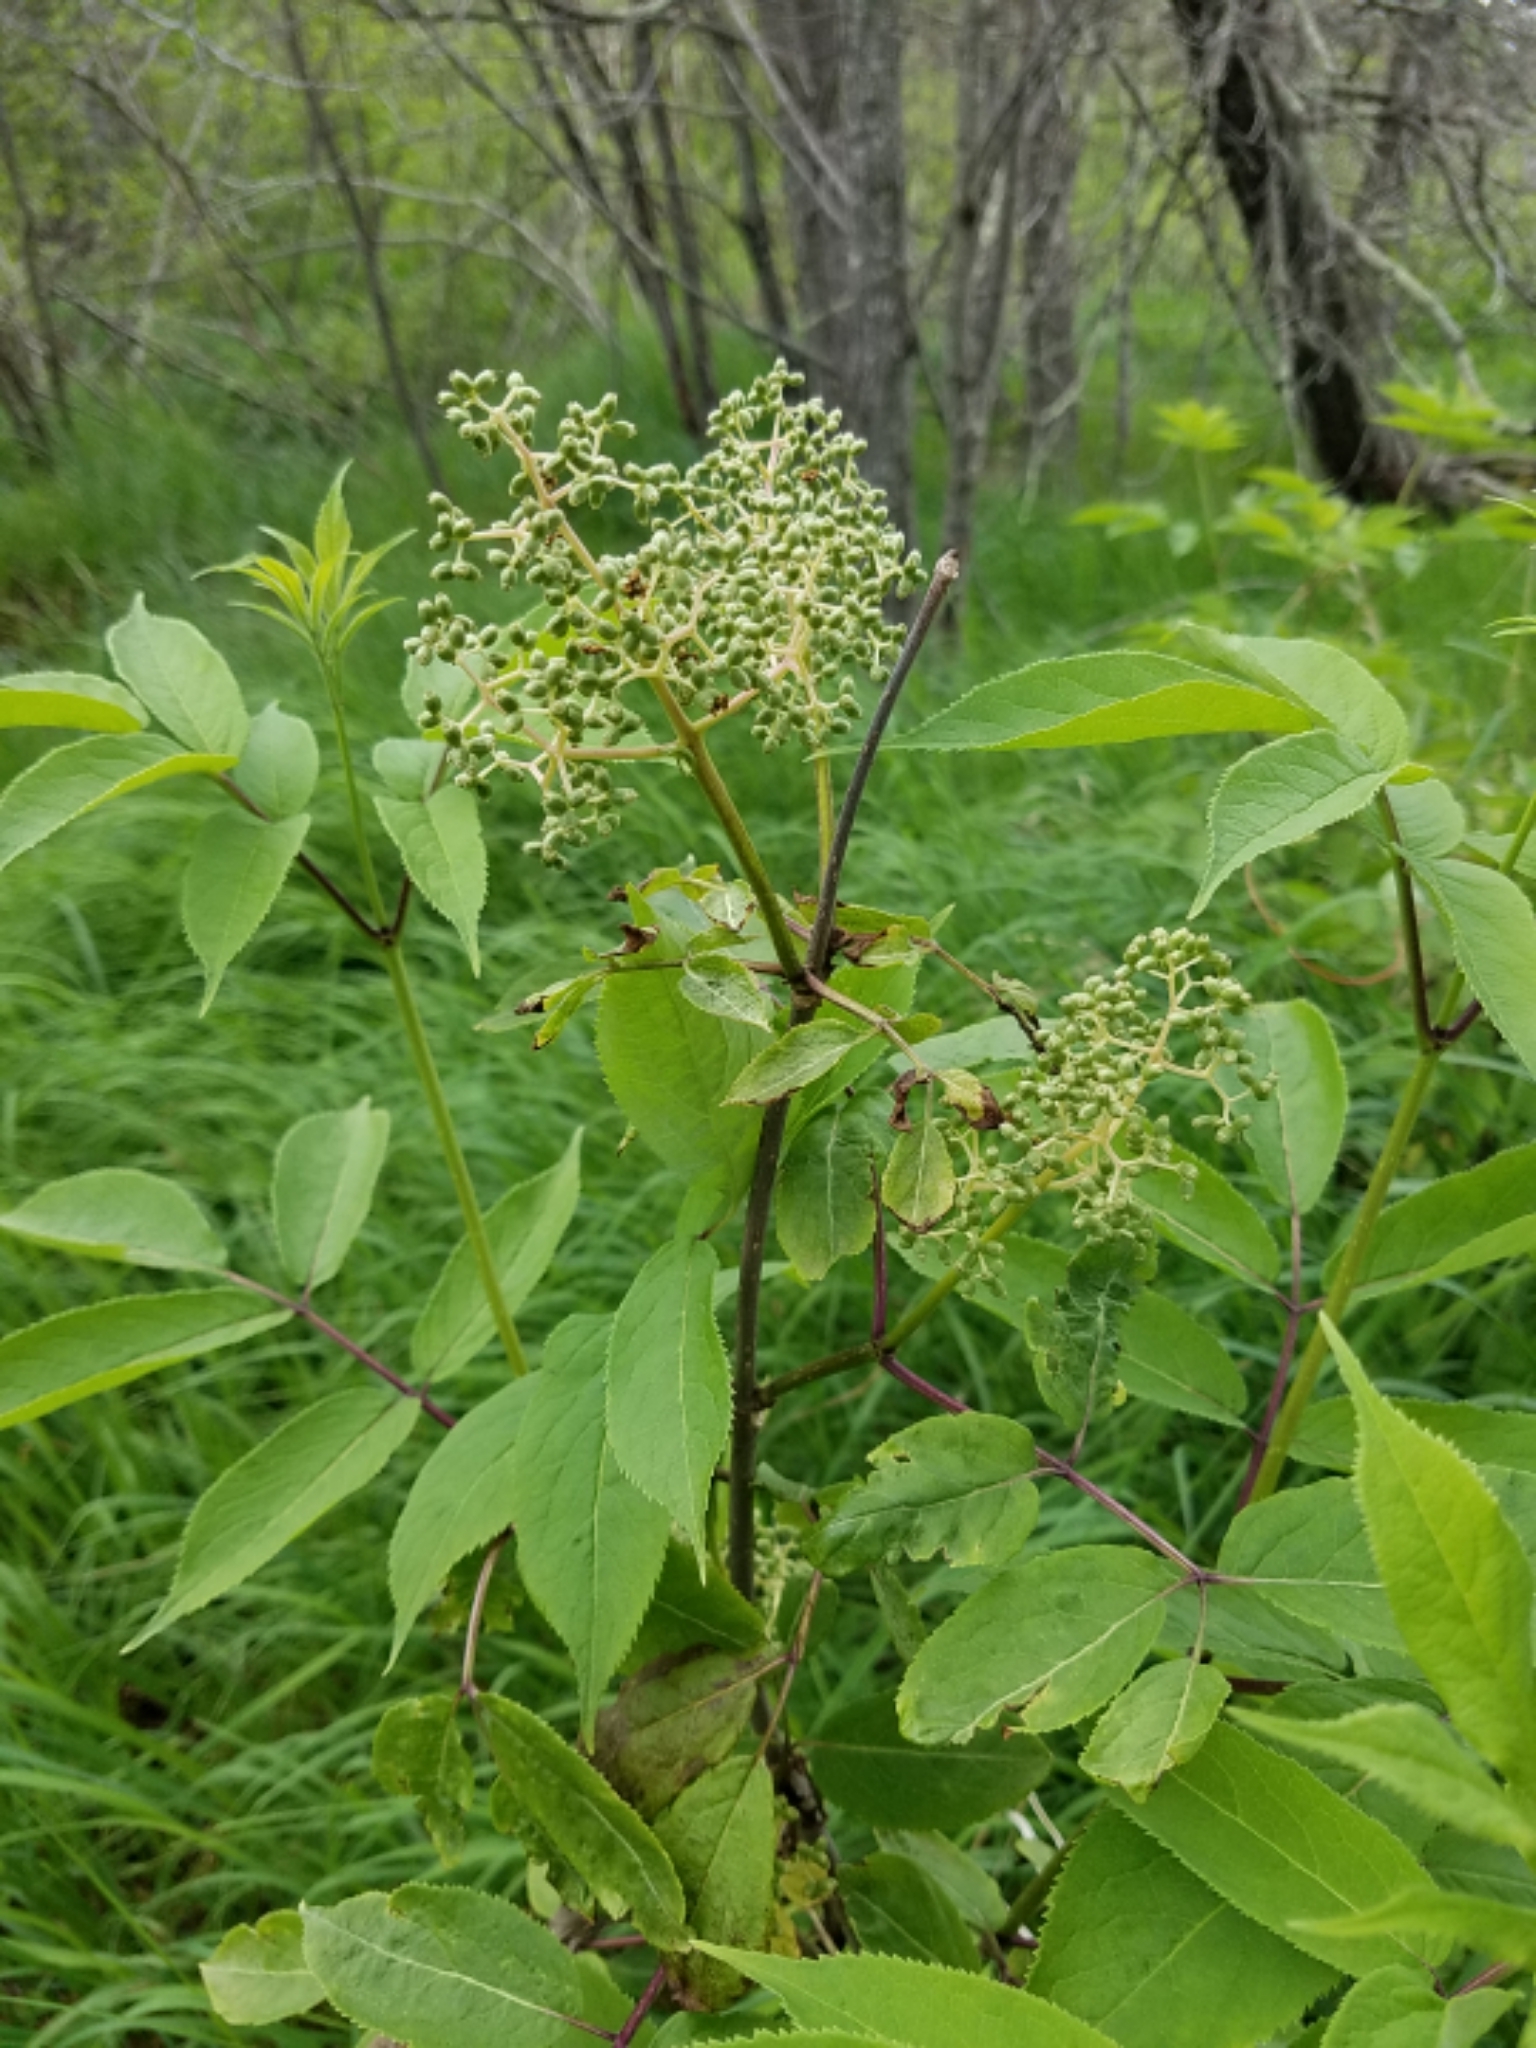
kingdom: Plantae
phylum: Tracheophyta
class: Magnoliopsida
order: Dipsacales
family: Viburnaceae
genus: Sambucus
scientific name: Sambucus racemosa
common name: Red-berried elder
